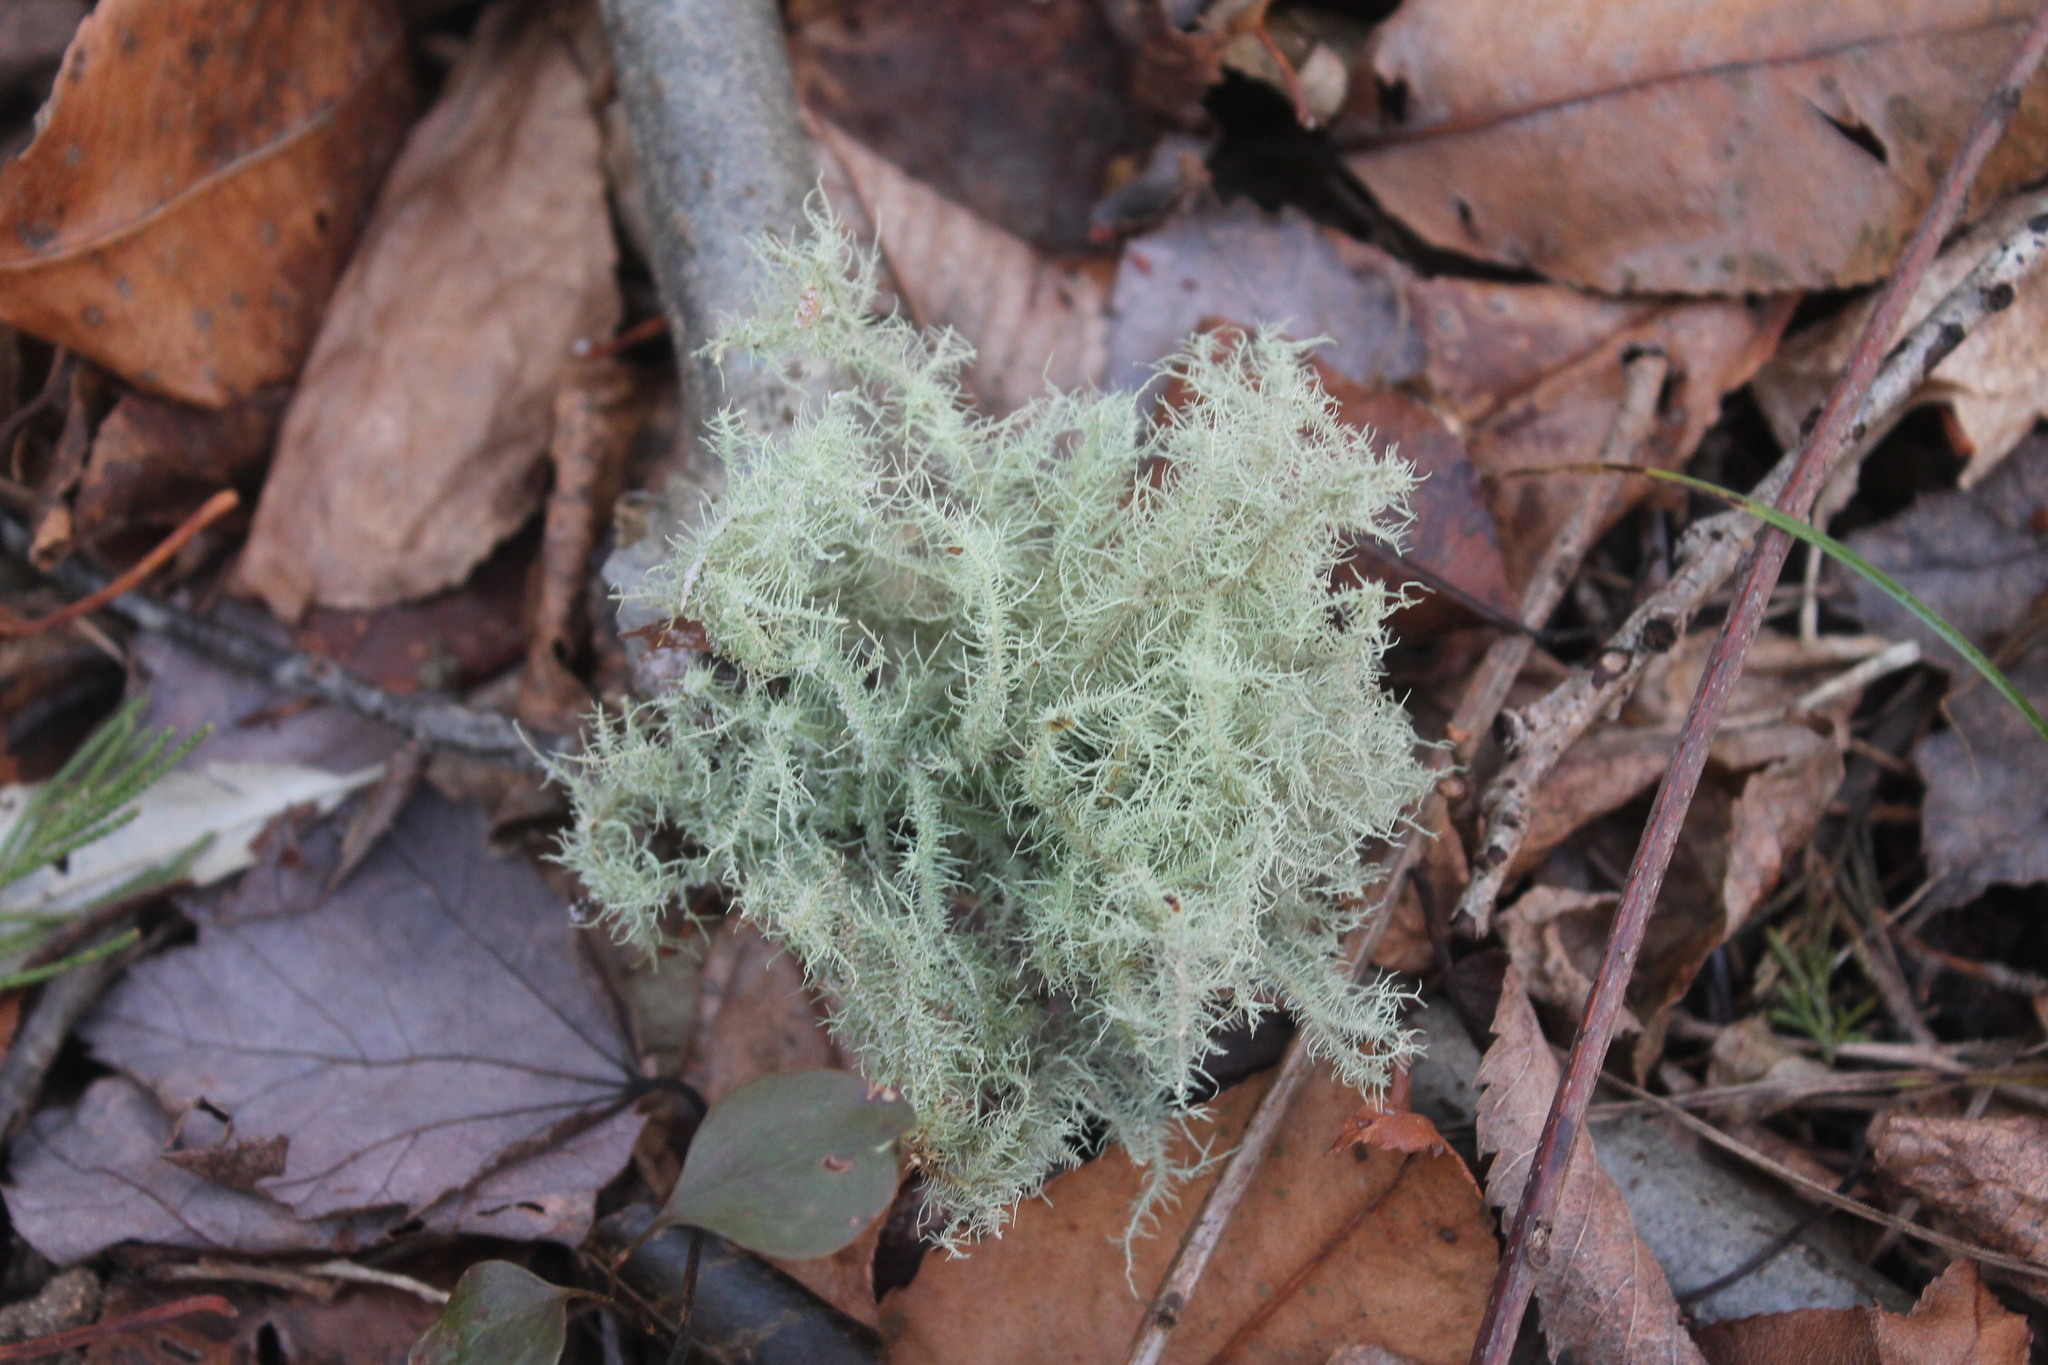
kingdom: Fungi
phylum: Ascomycota
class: Lecanoromycetes
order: Lecanorales
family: Parmeliaceae
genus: Usnea
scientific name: Usnea strigosa
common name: Bushy beard lichen
